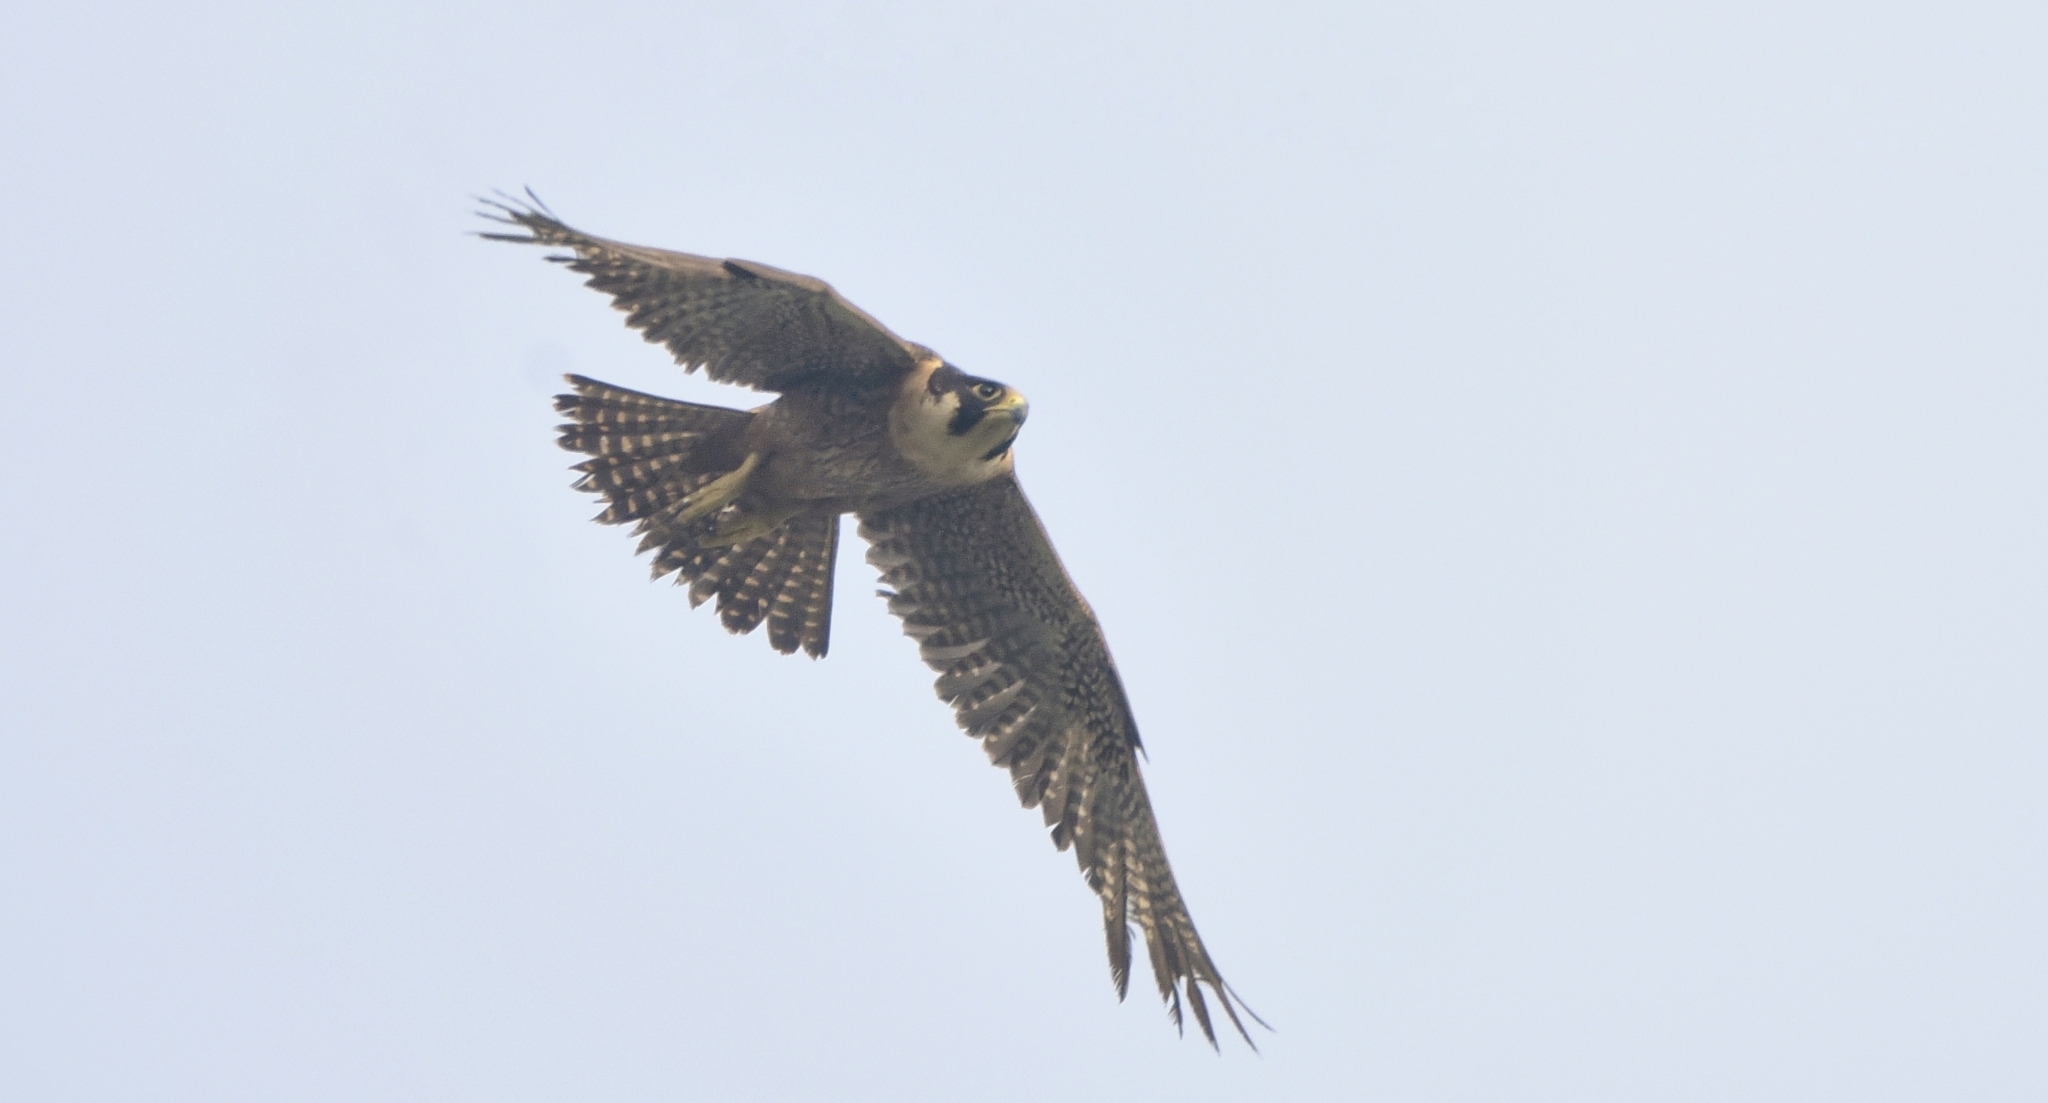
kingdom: Animalia
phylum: Chordata
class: Aves
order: Falconiformes
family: Falconidae
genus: Falco
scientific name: Falco peregrinus
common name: Peregrine falcon
